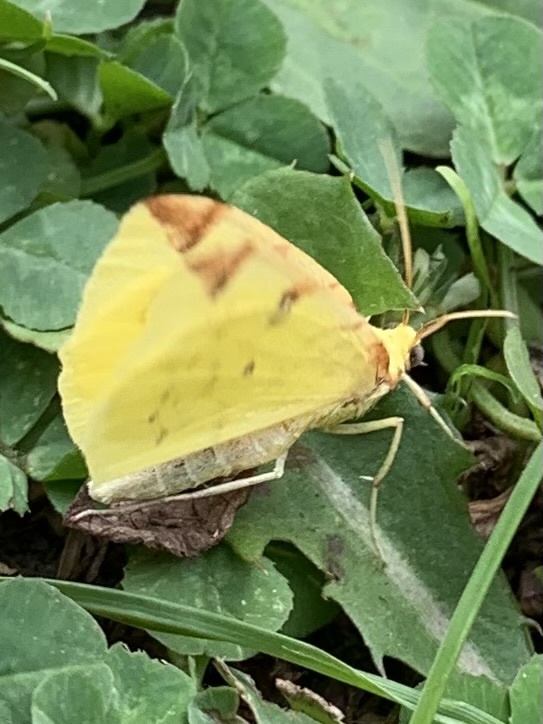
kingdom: Animalia
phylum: Arthropoda
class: Insecta
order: Lepidoptera
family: Geometridae
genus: Opisthograptis
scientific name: Opisthograptis luteolata
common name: Brimstone moth
